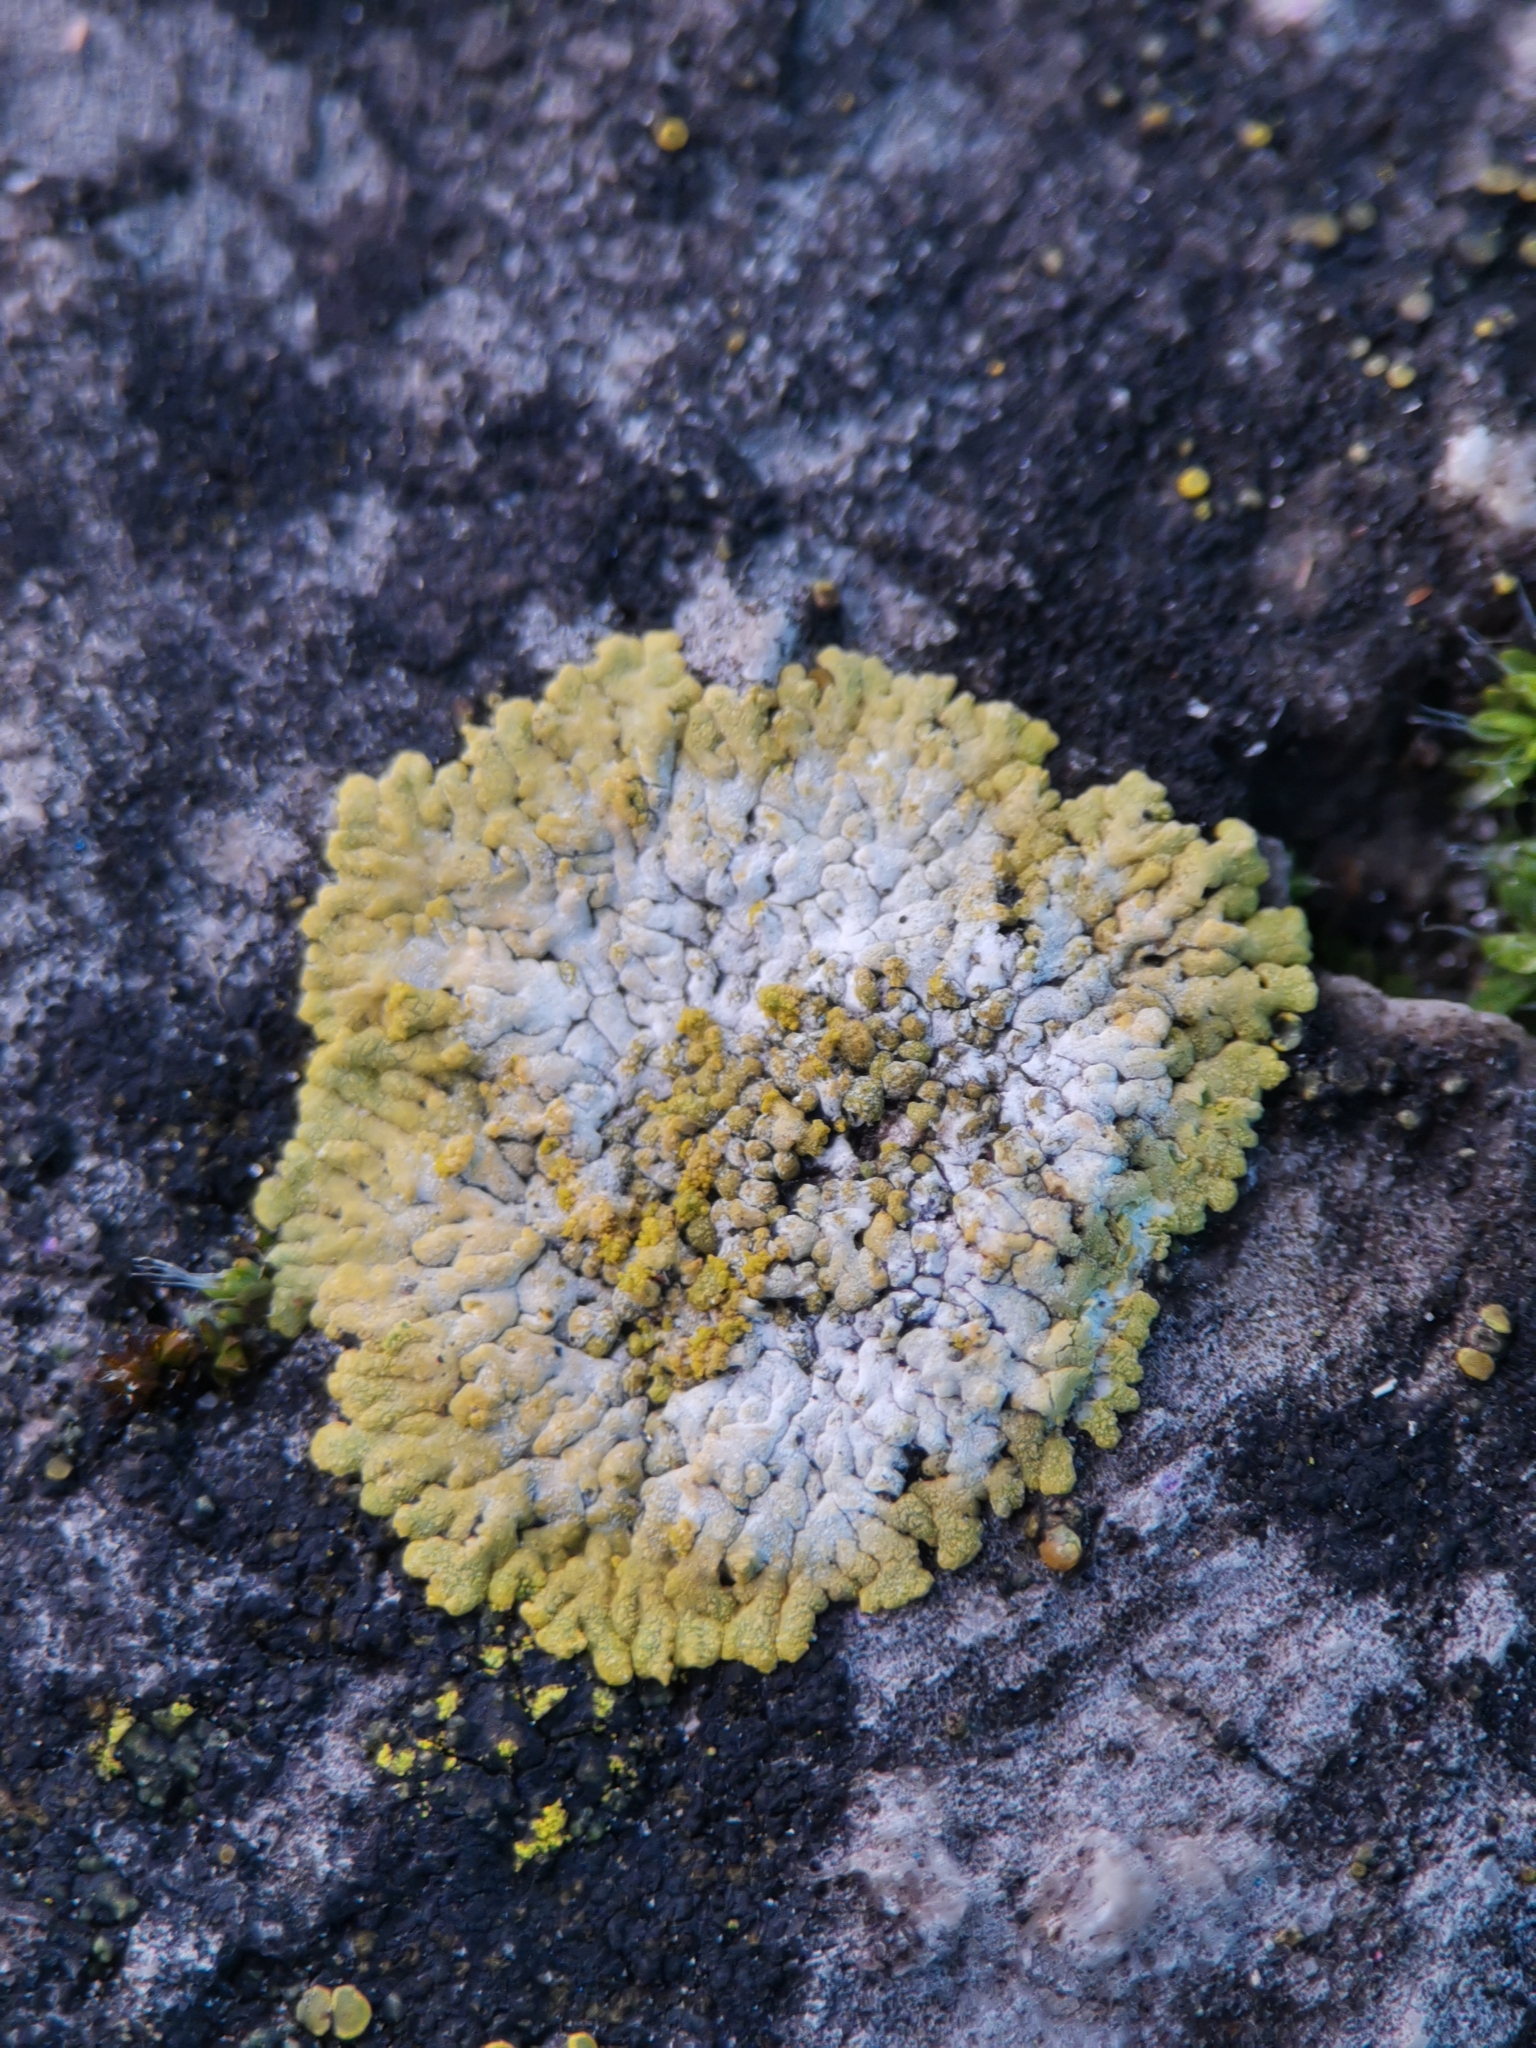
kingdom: Fungi
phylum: Ascomycota
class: Lecanoromycetes
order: Teloschistales
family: Teloschistaceae
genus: Calogaya
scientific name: Calogaya decipiens
